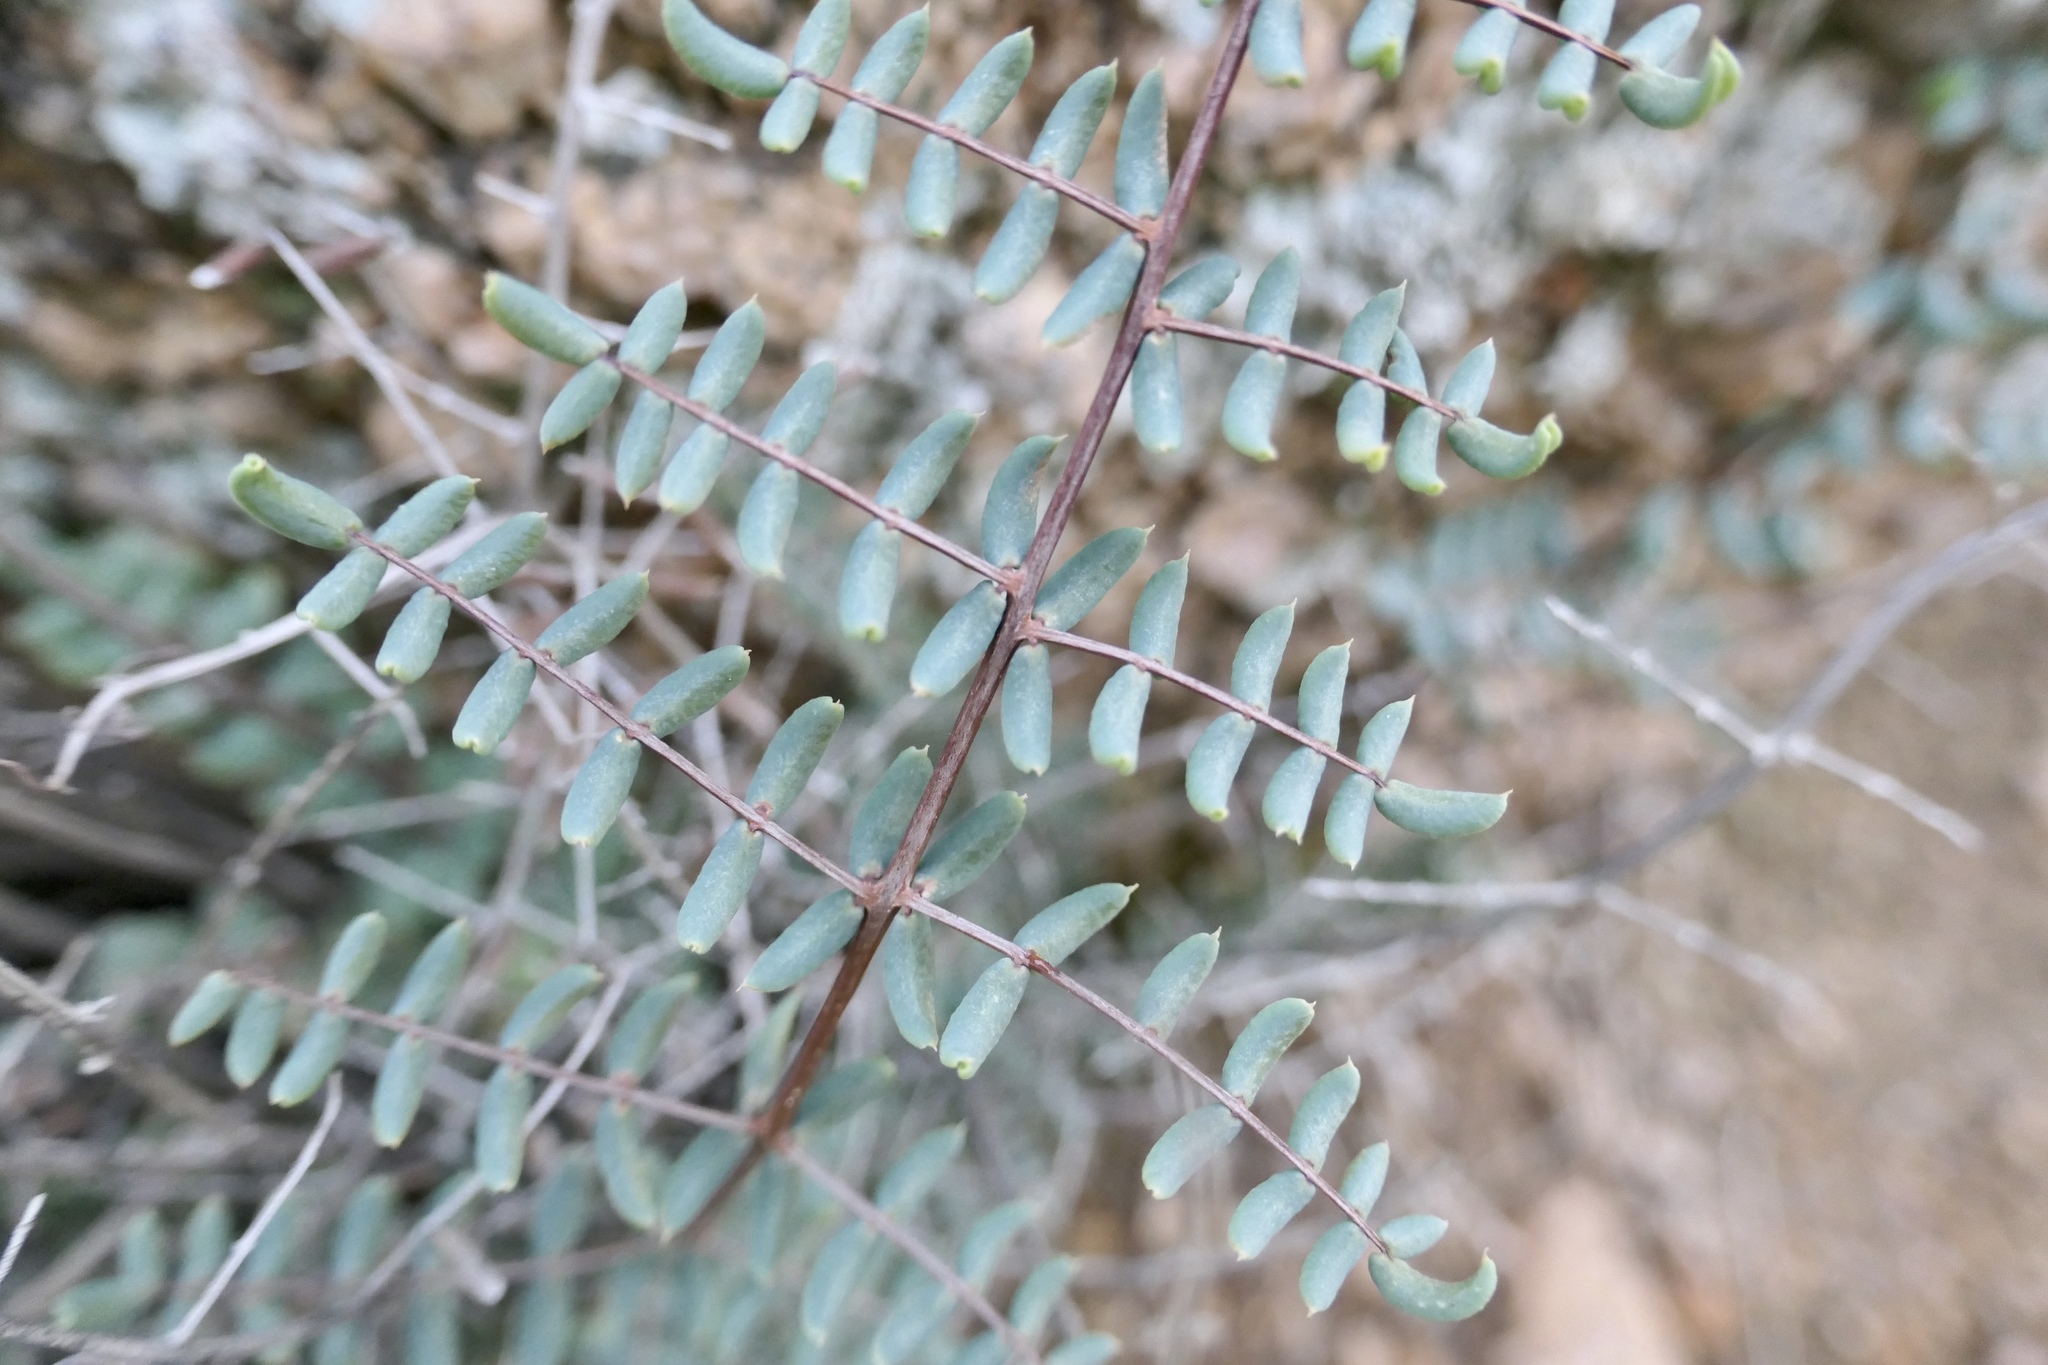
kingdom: Plantae
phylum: Tracheophyta
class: Polypodiopsida
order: Polypodiales
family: Pteridaceae
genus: Pellaea
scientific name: Pellaea truncata
